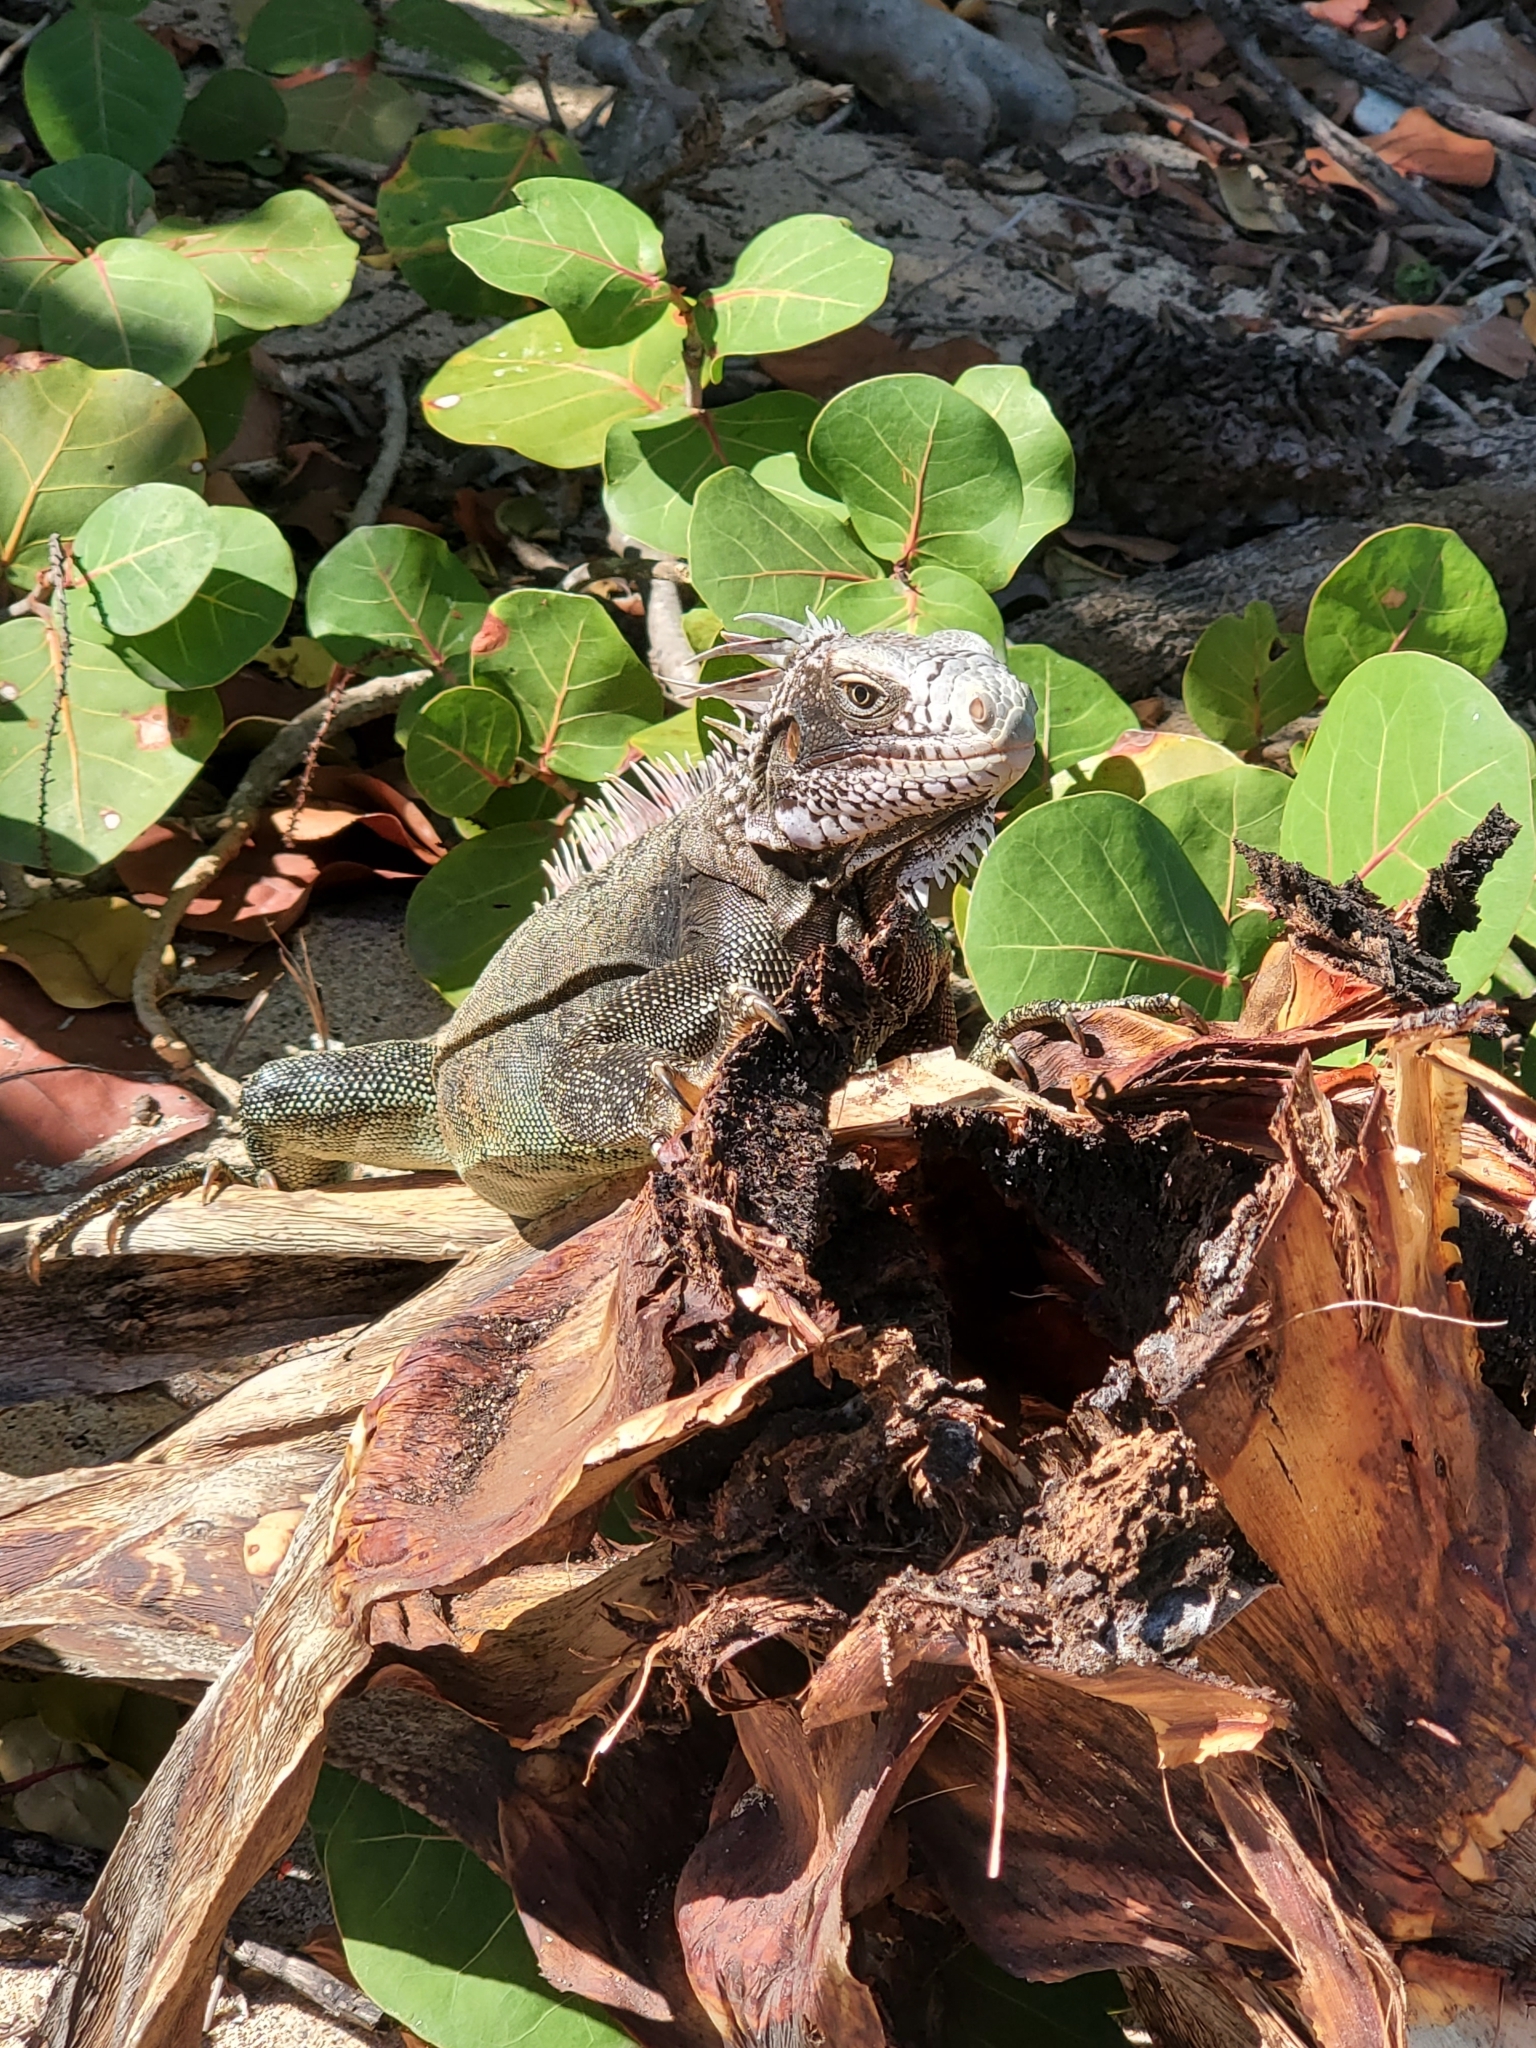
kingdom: Animalia
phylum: Chordata
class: Squamata
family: Iguanidae
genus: Iguana
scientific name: Iguana iguana
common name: Green iguana
